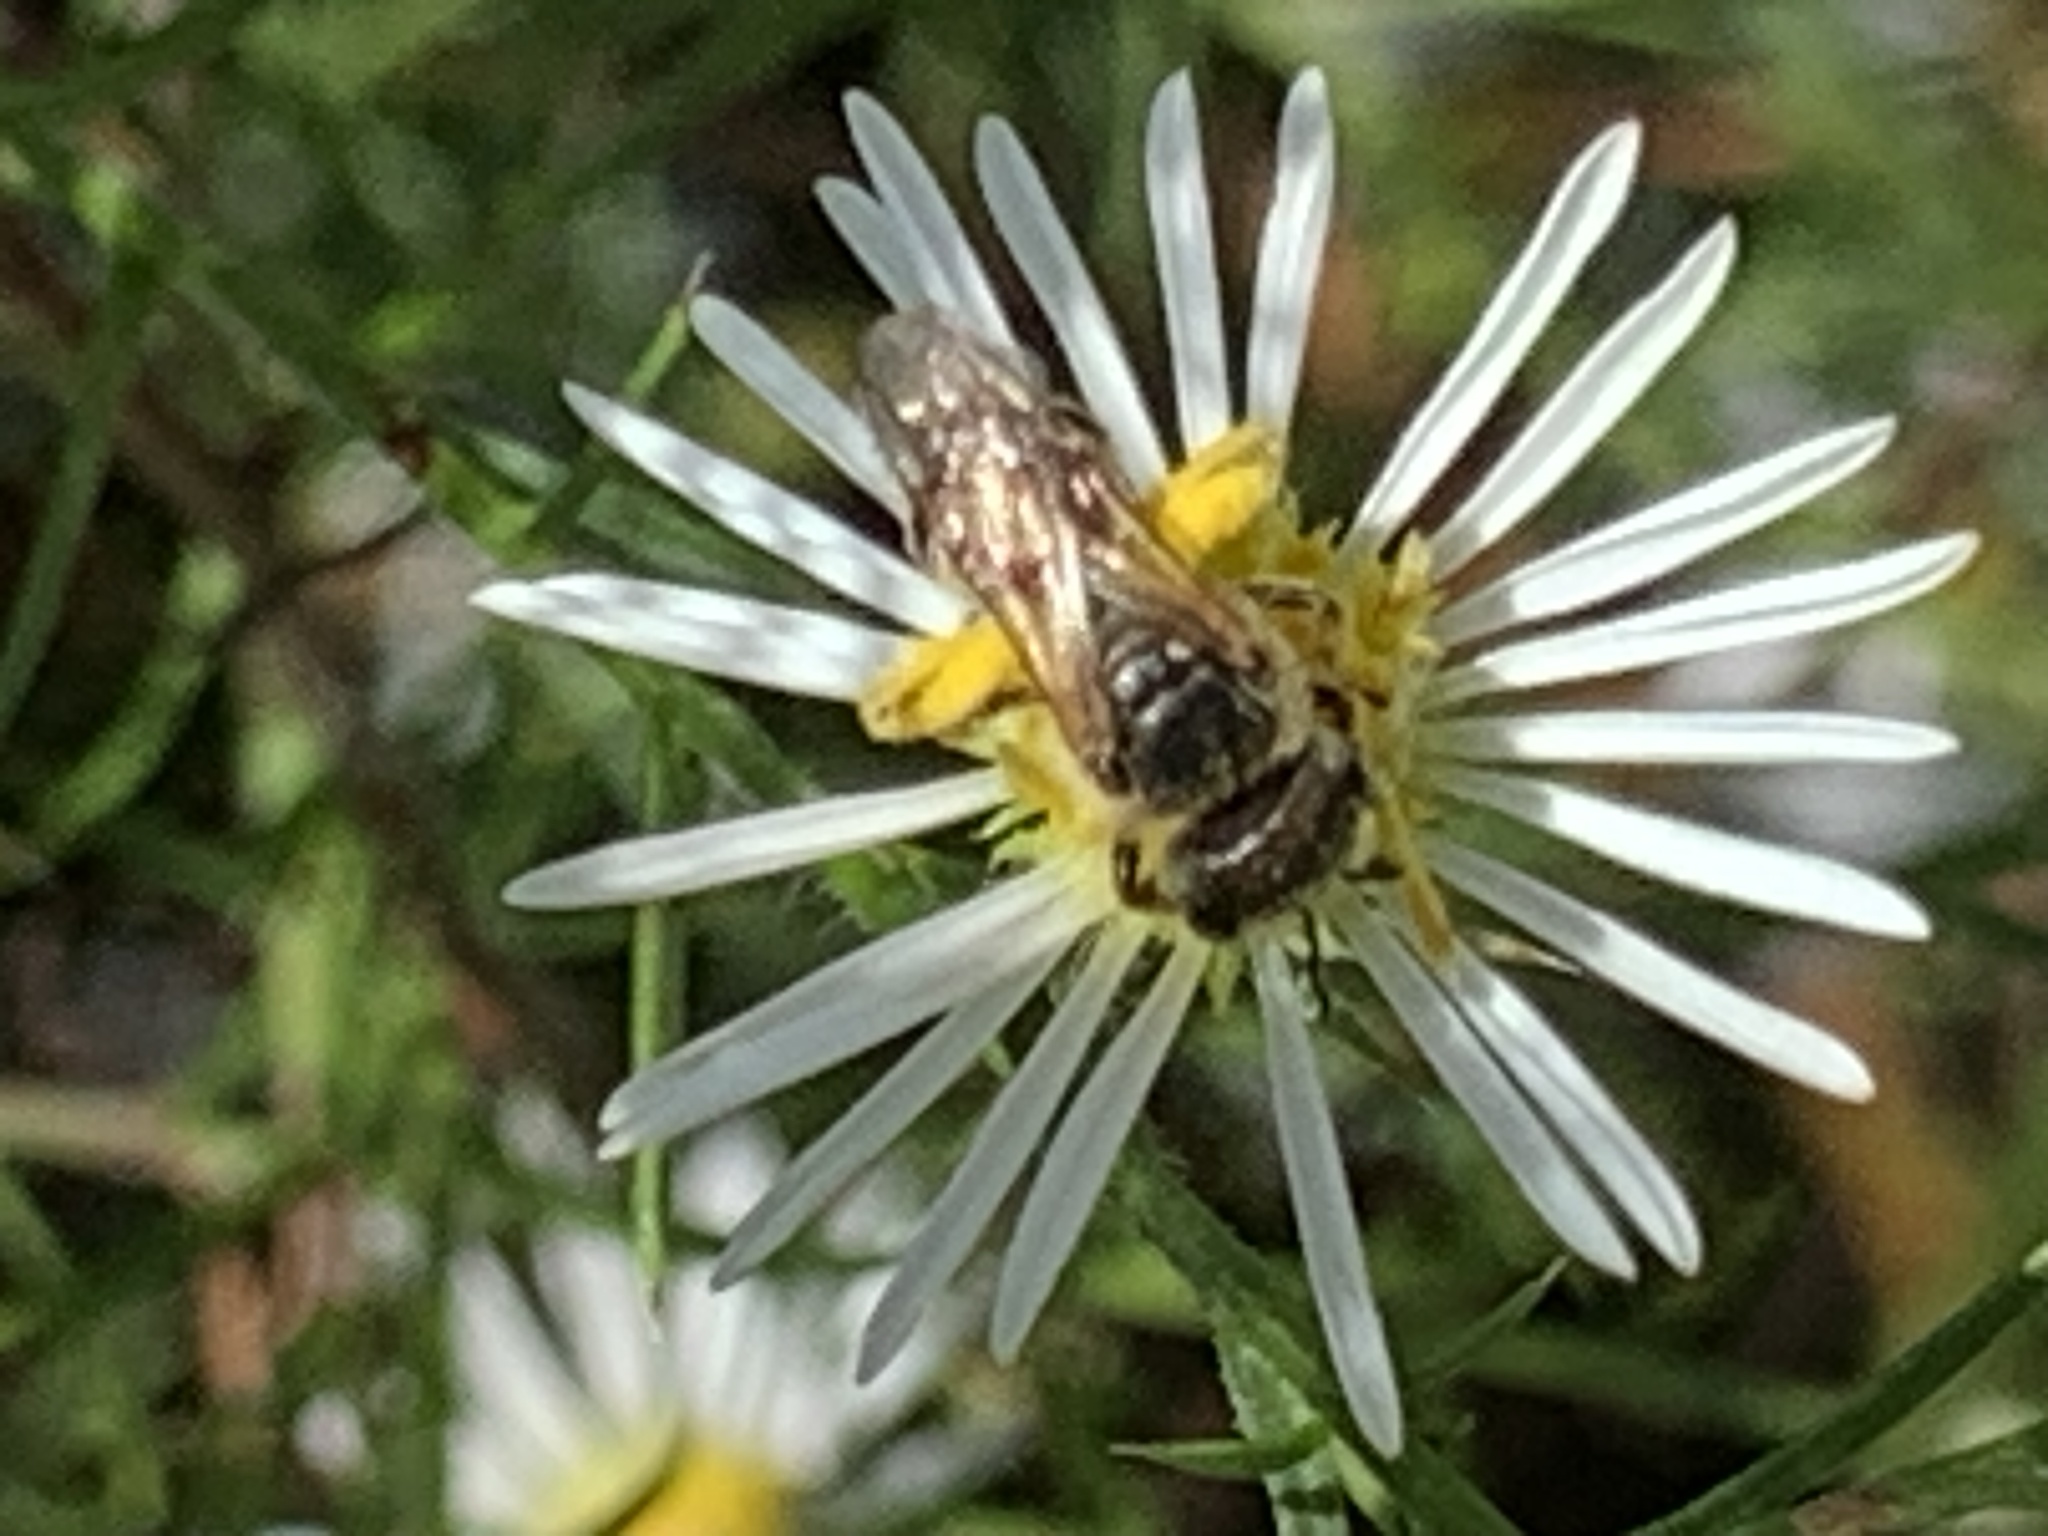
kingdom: Animalia
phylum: Arthropoda
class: Insecta
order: Hymenoptera
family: Halictidae
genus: Halictus
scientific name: Halictus ligatus
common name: Ligated furrow bee
